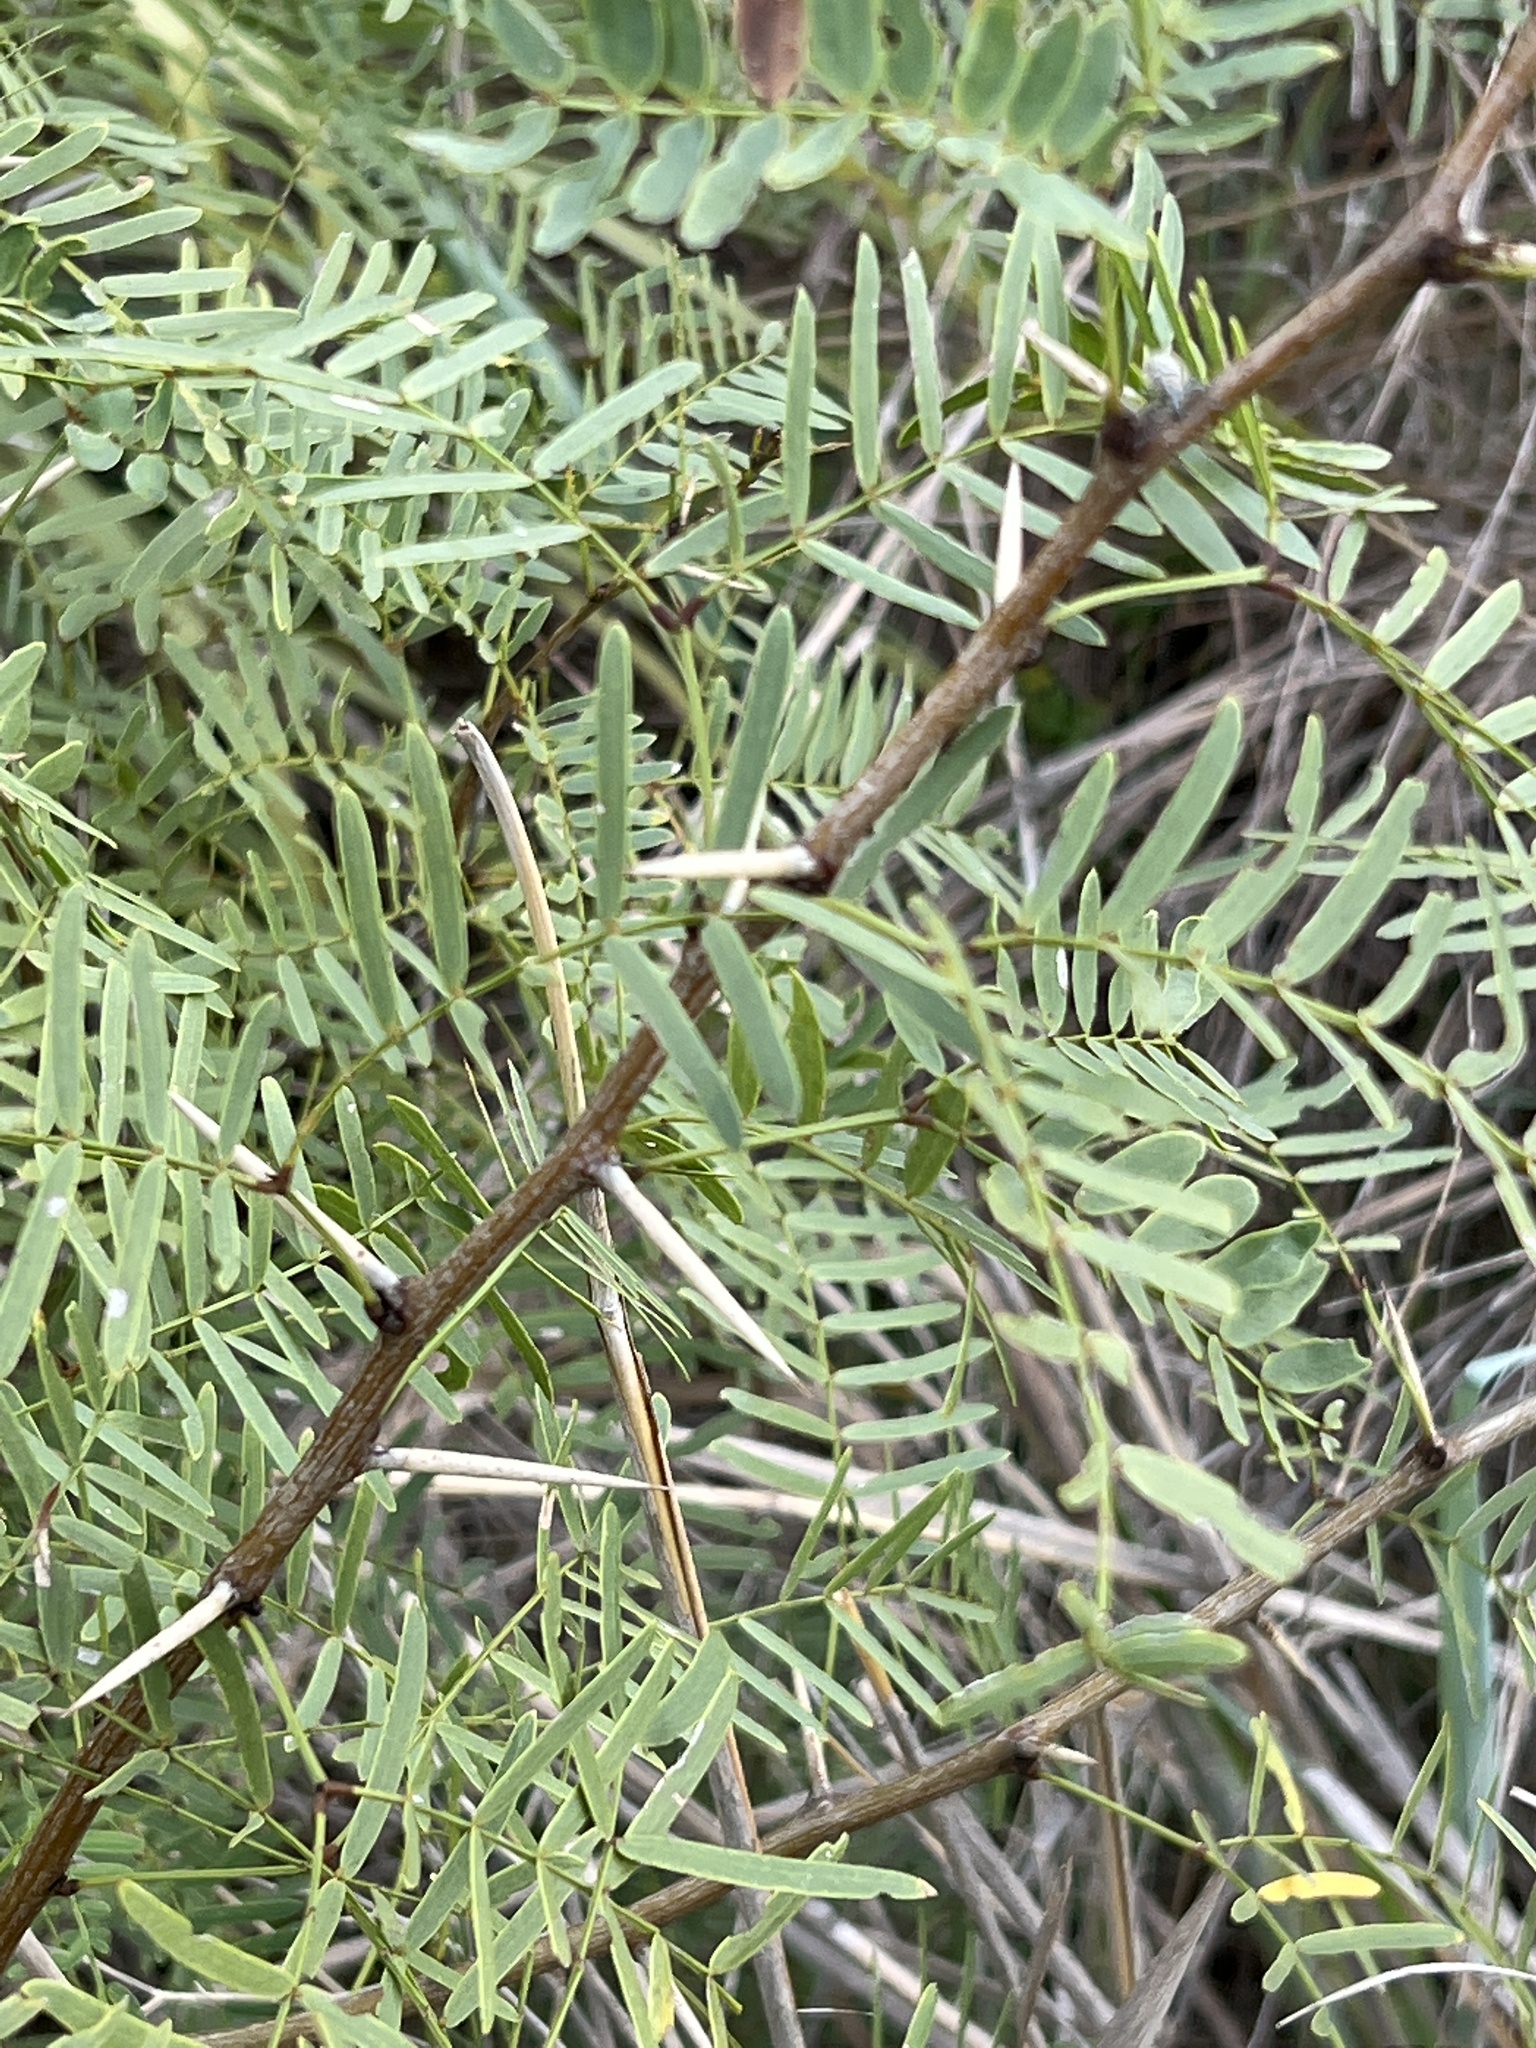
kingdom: Plantae
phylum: Tracheophyta
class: Magnoliopsida
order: Fabales
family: Fabaceae
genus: Prosopis
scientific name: Prosopis glandulosa
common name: Honey mesquite
